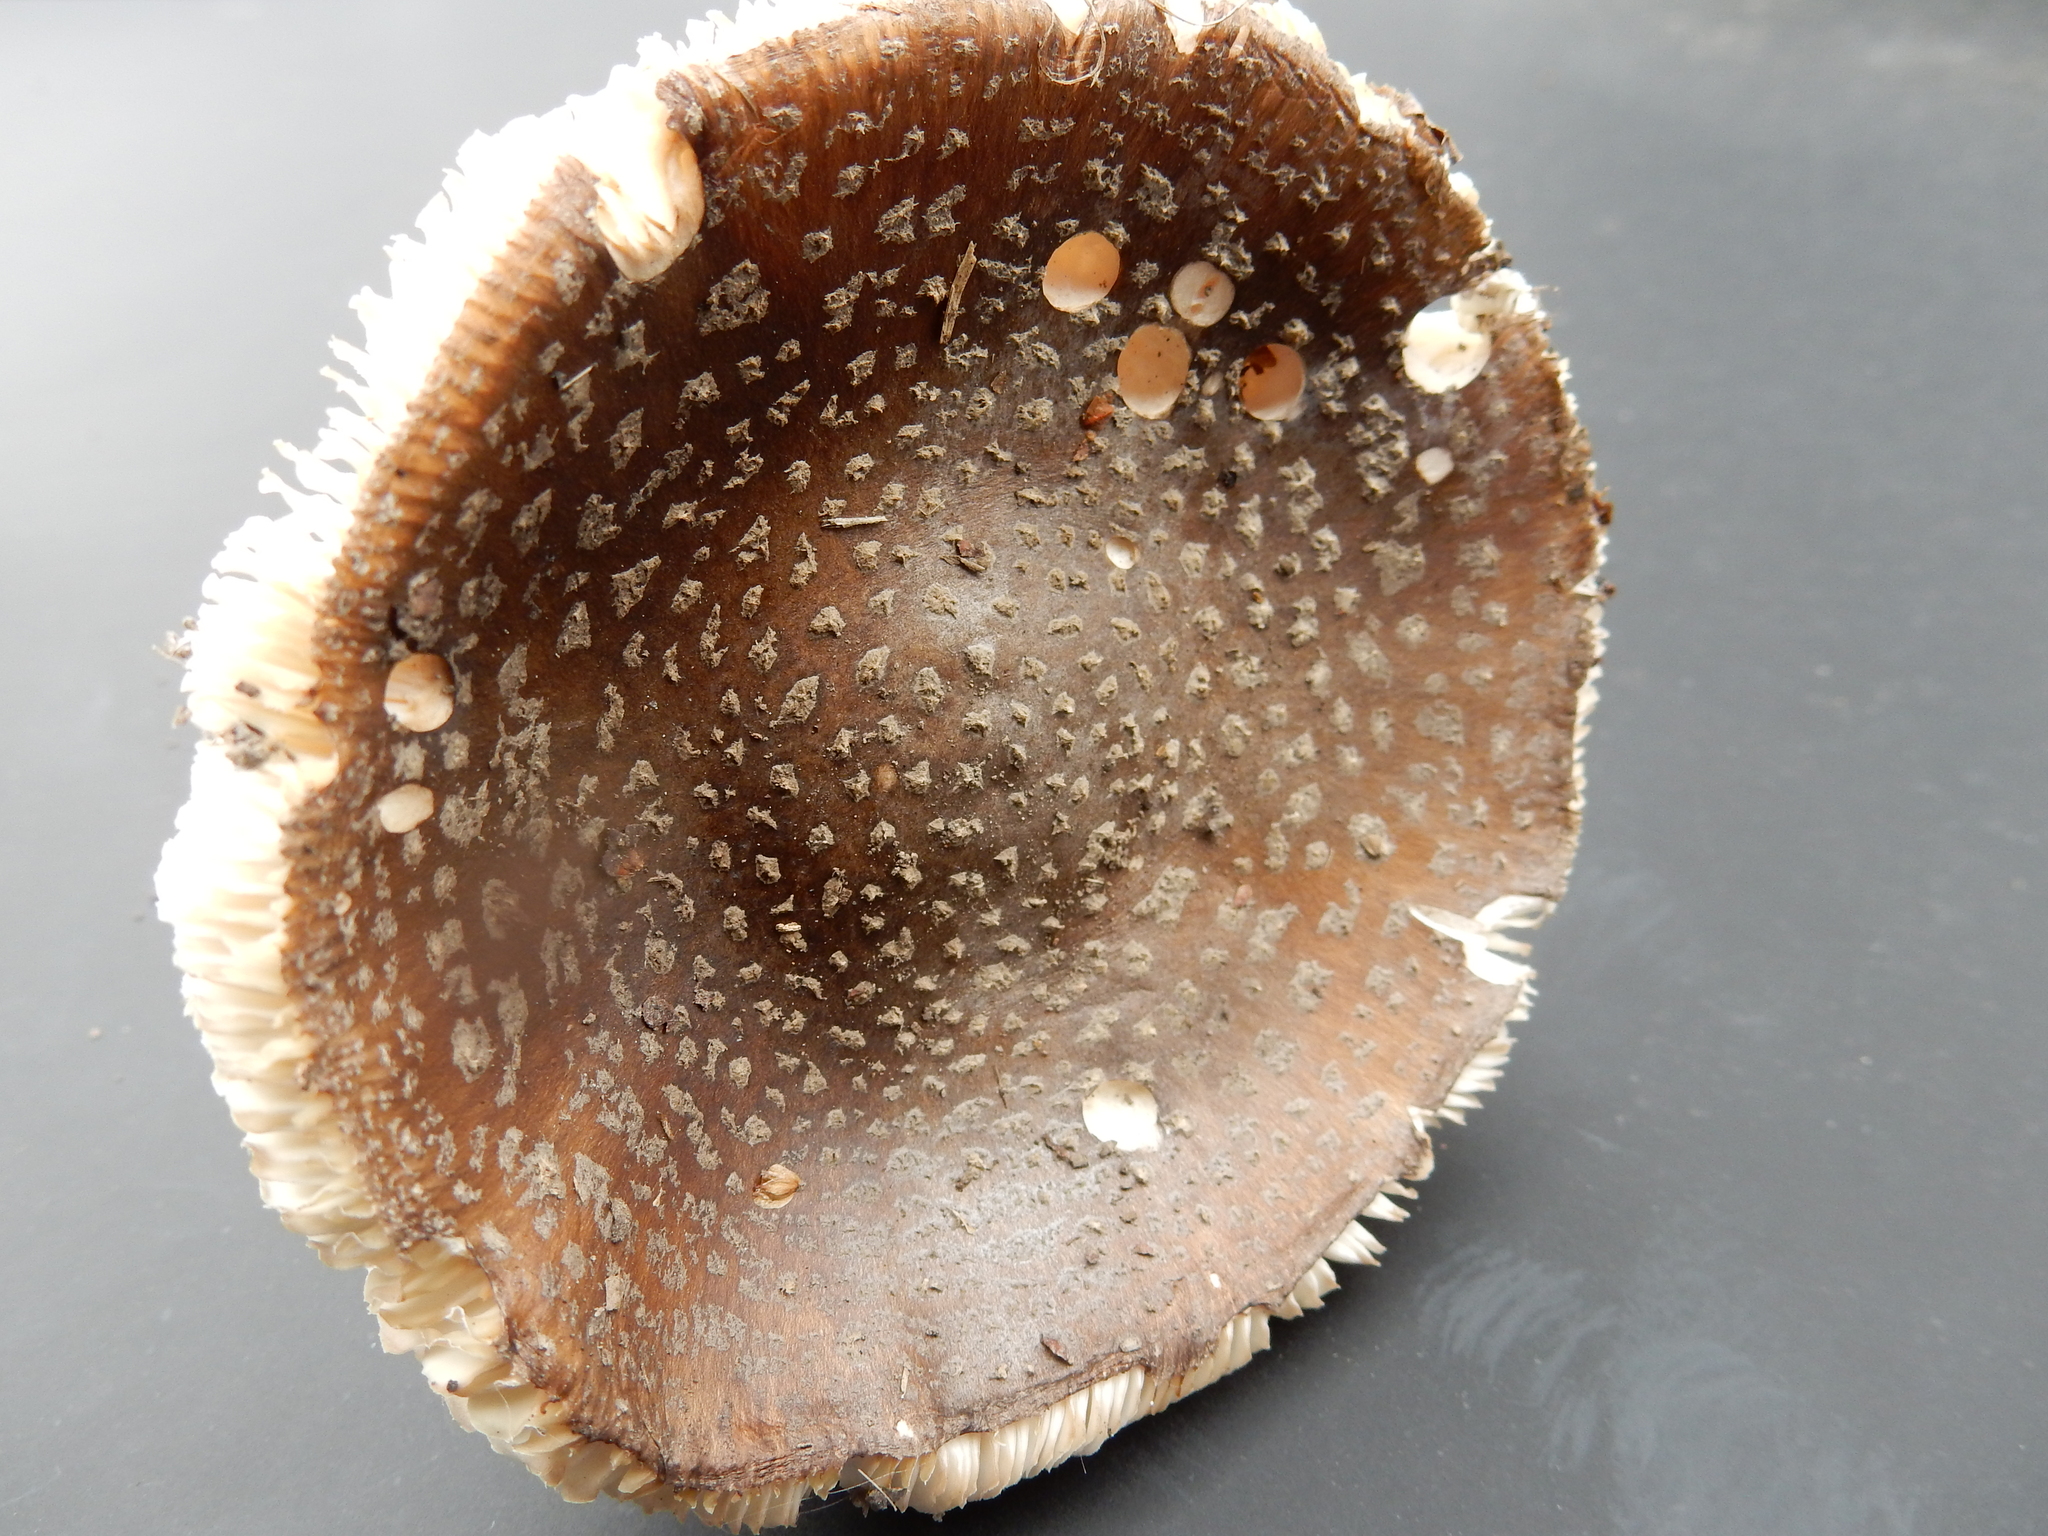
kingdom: Fungi
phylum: Basidiomycota
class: Agaricomycetes
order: Agaricales
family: Amanitaceae
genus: Amanita
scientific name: Amanita excelsa
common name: European false blusher
